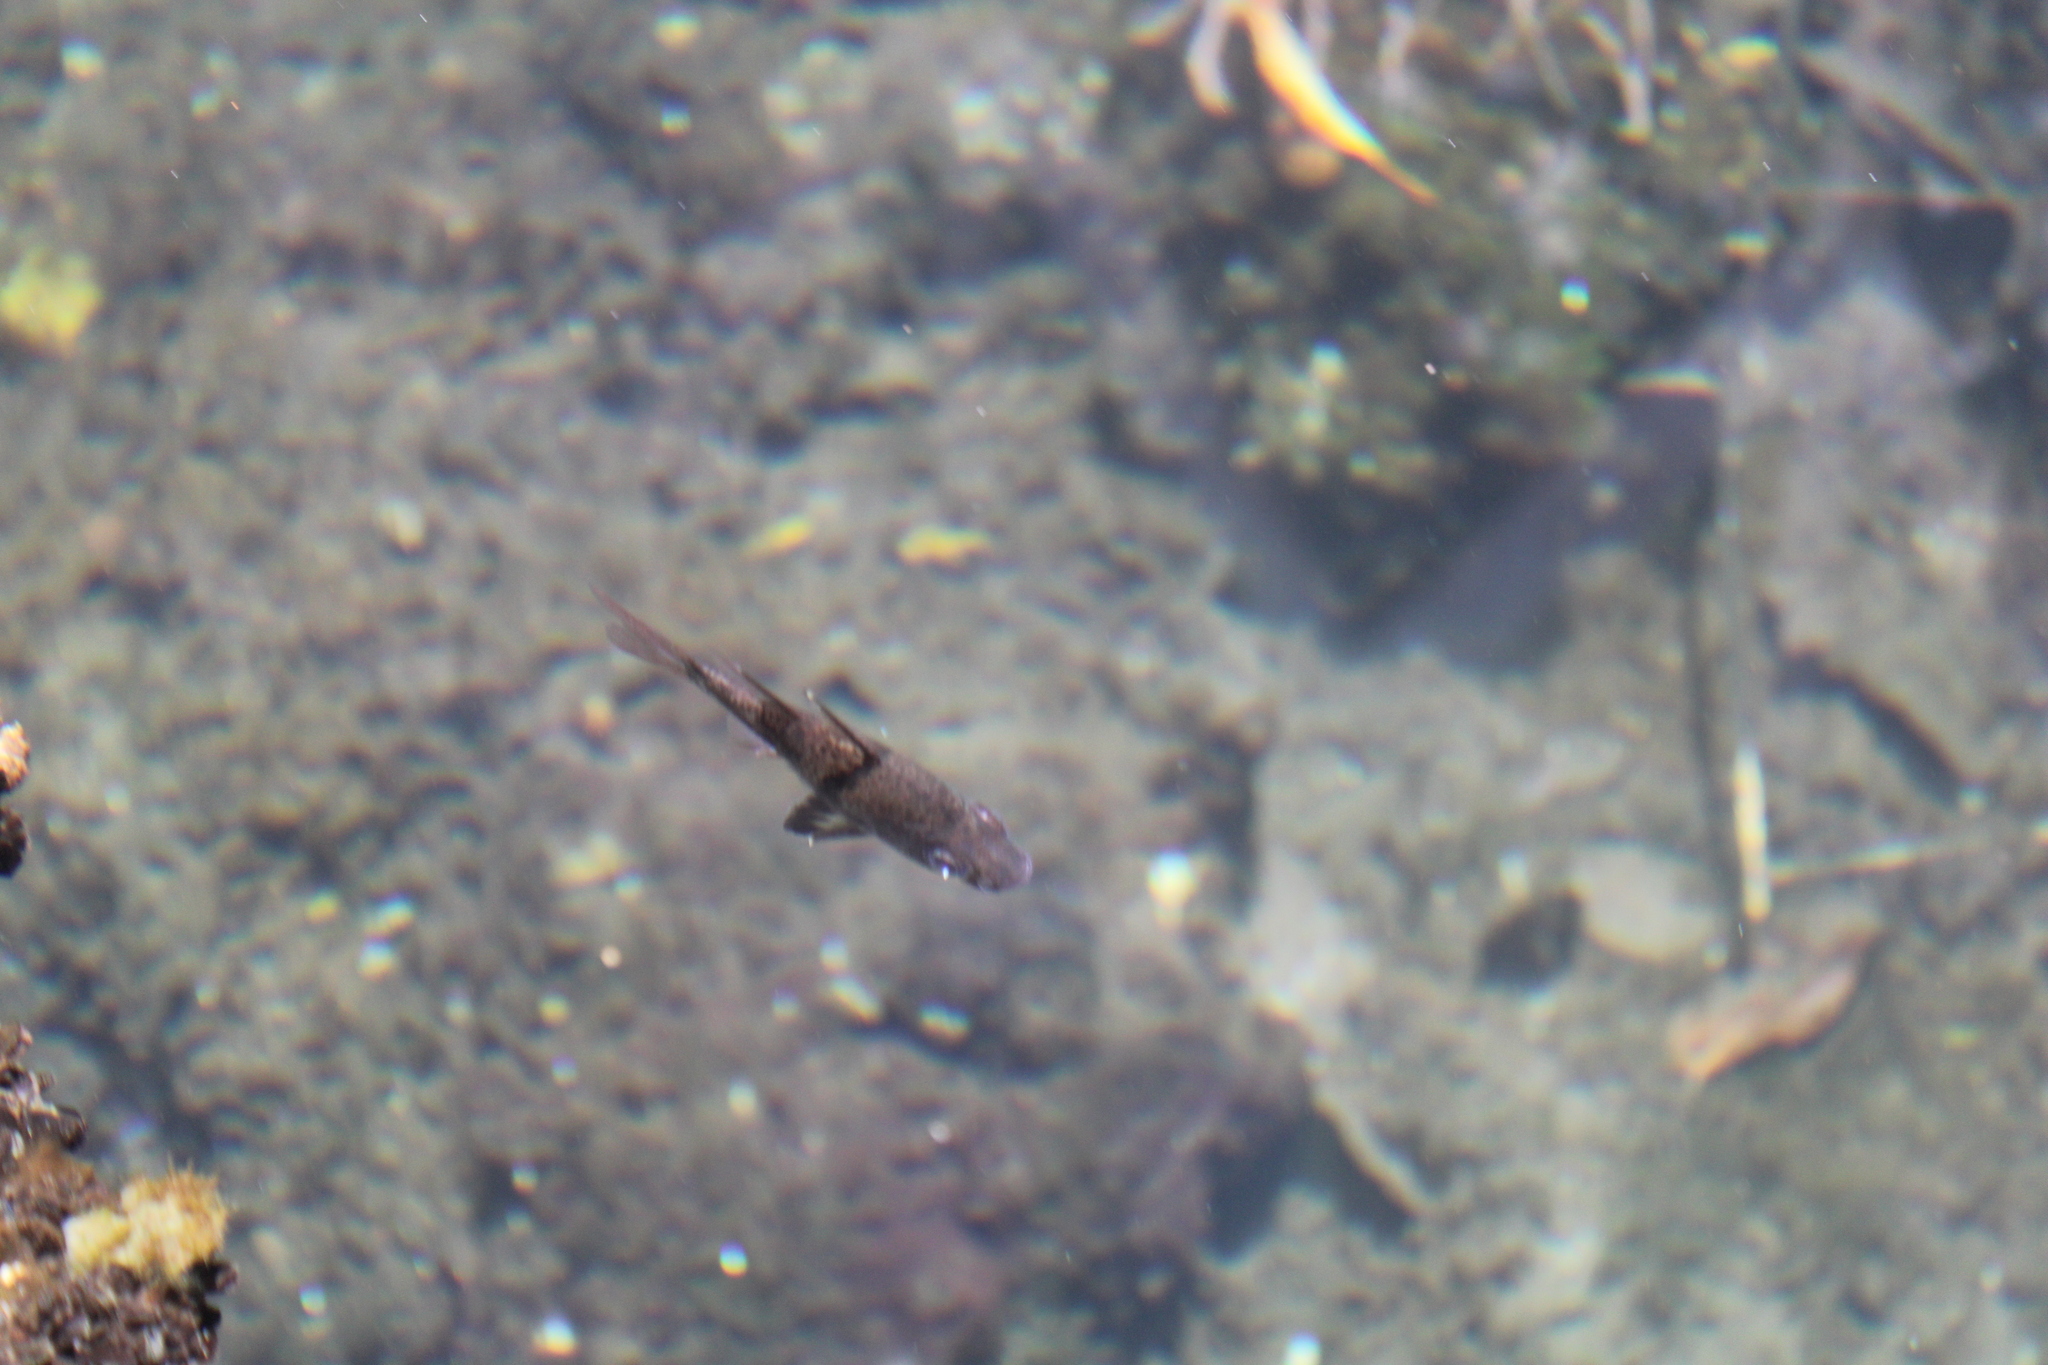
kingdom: Animalia
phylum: Chordata
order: Perciformes
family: Apogonidae
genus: Sphaeramia
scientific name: Sphaeramia orbicularis
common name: Polka-dot cardinalfish
